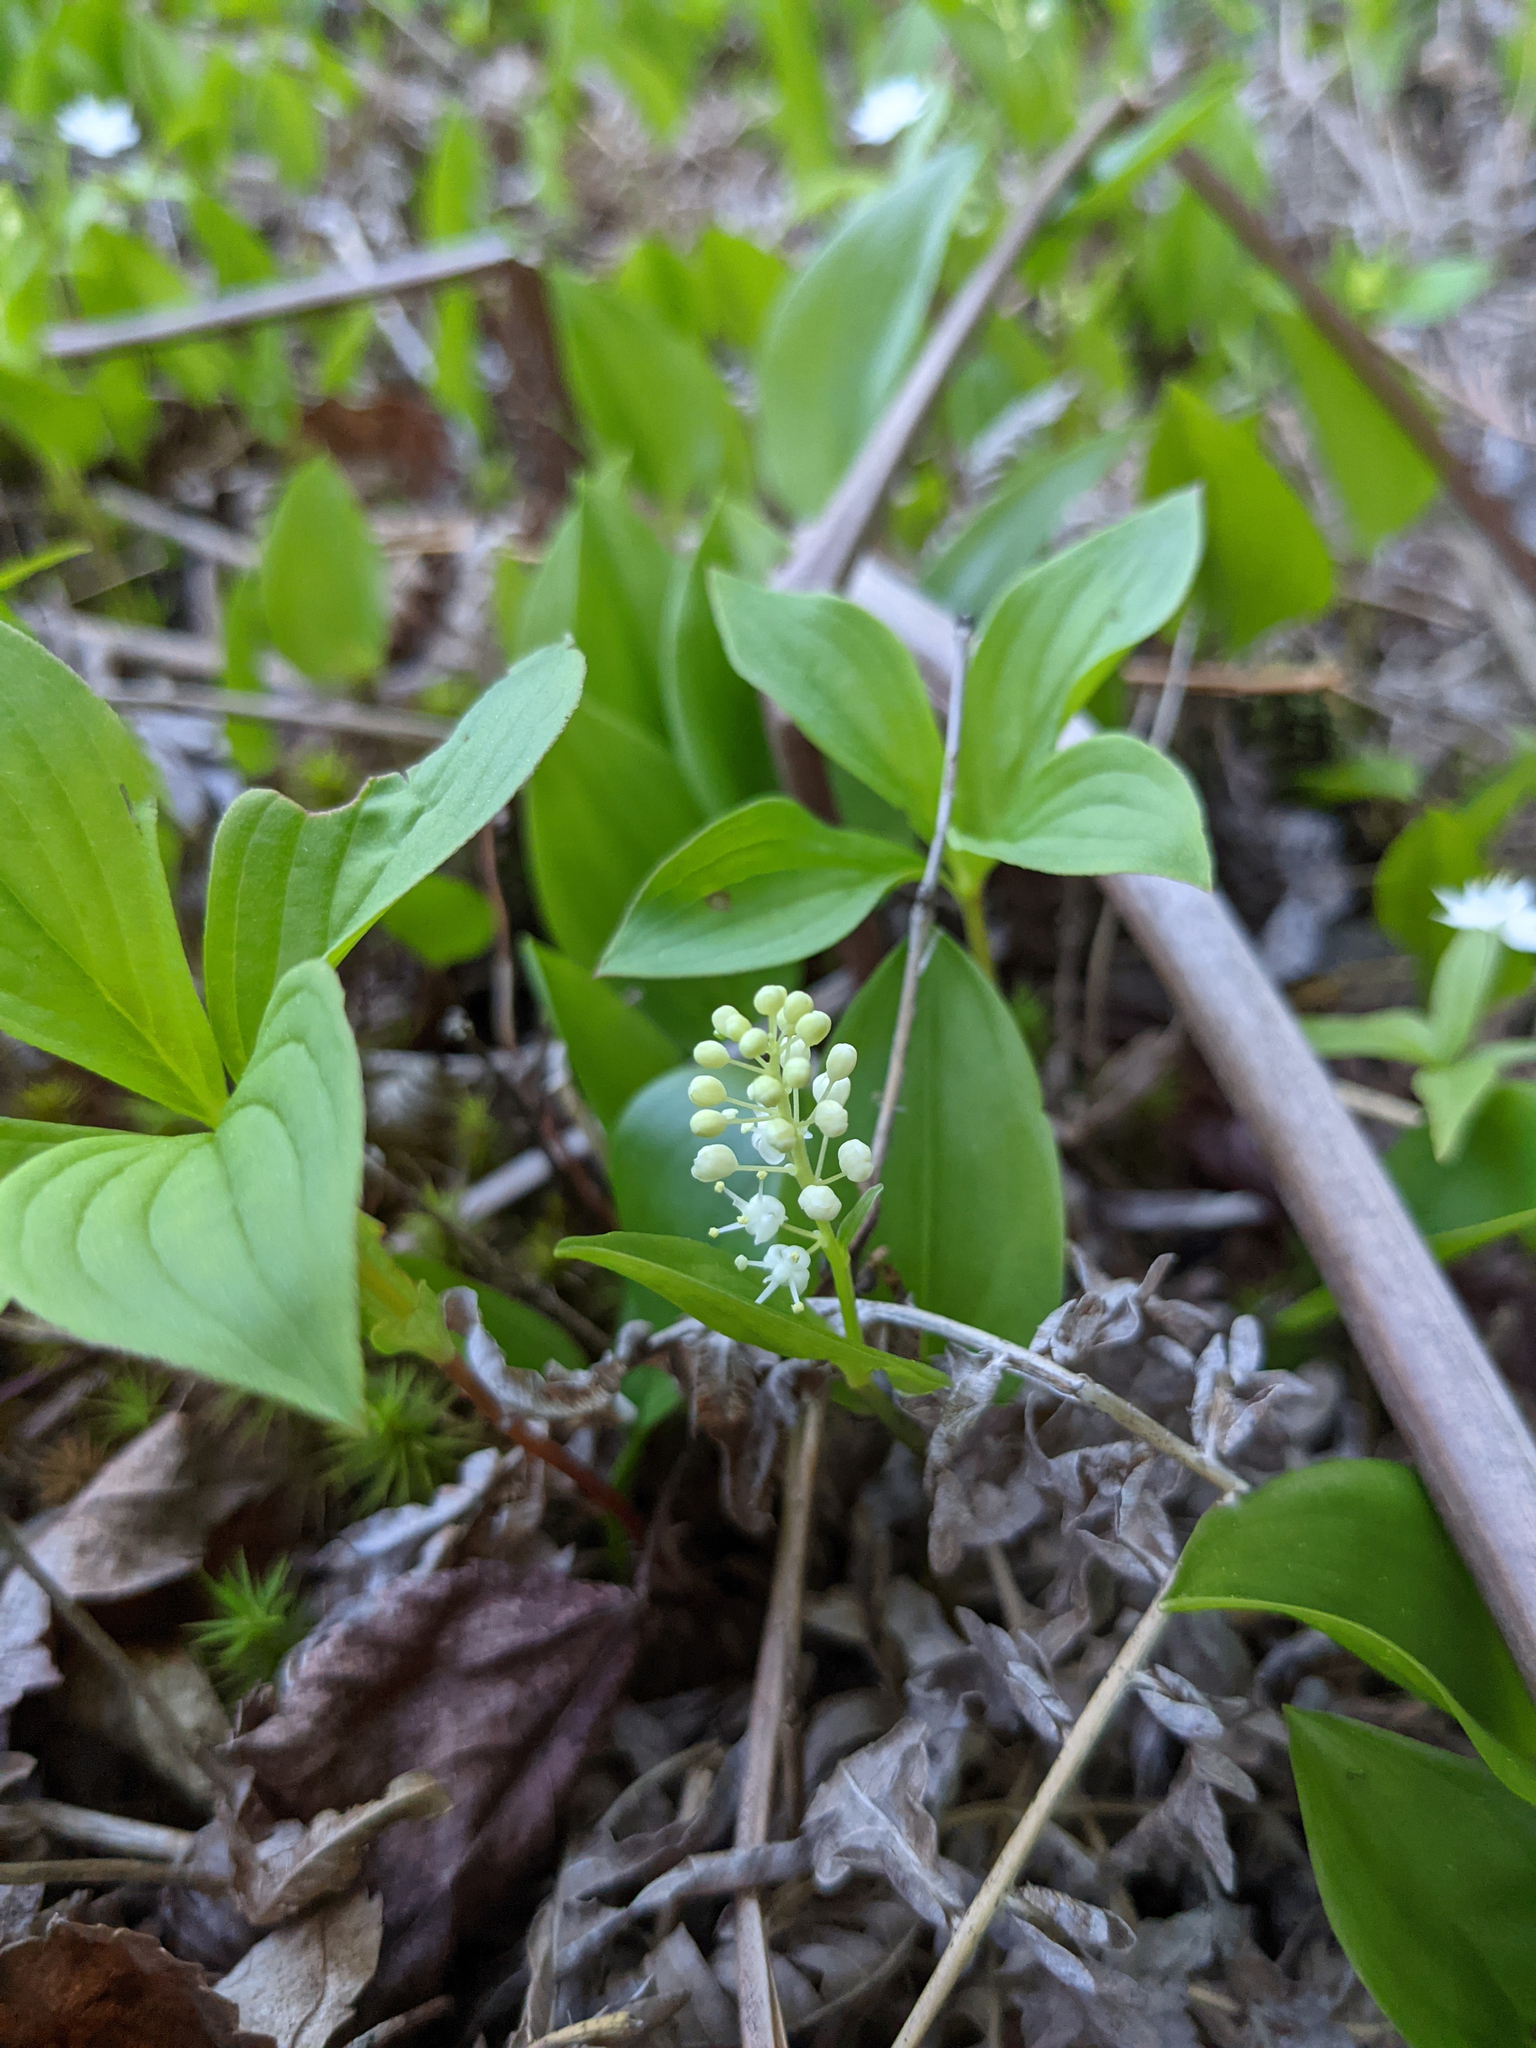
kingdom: Plantae
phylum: Tracheophyta
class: Liliopsida
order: Asparagales
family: Asparagaceae
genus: Maianthemum
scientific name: Maianthemum canadense
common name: False lily-of-the-valley
